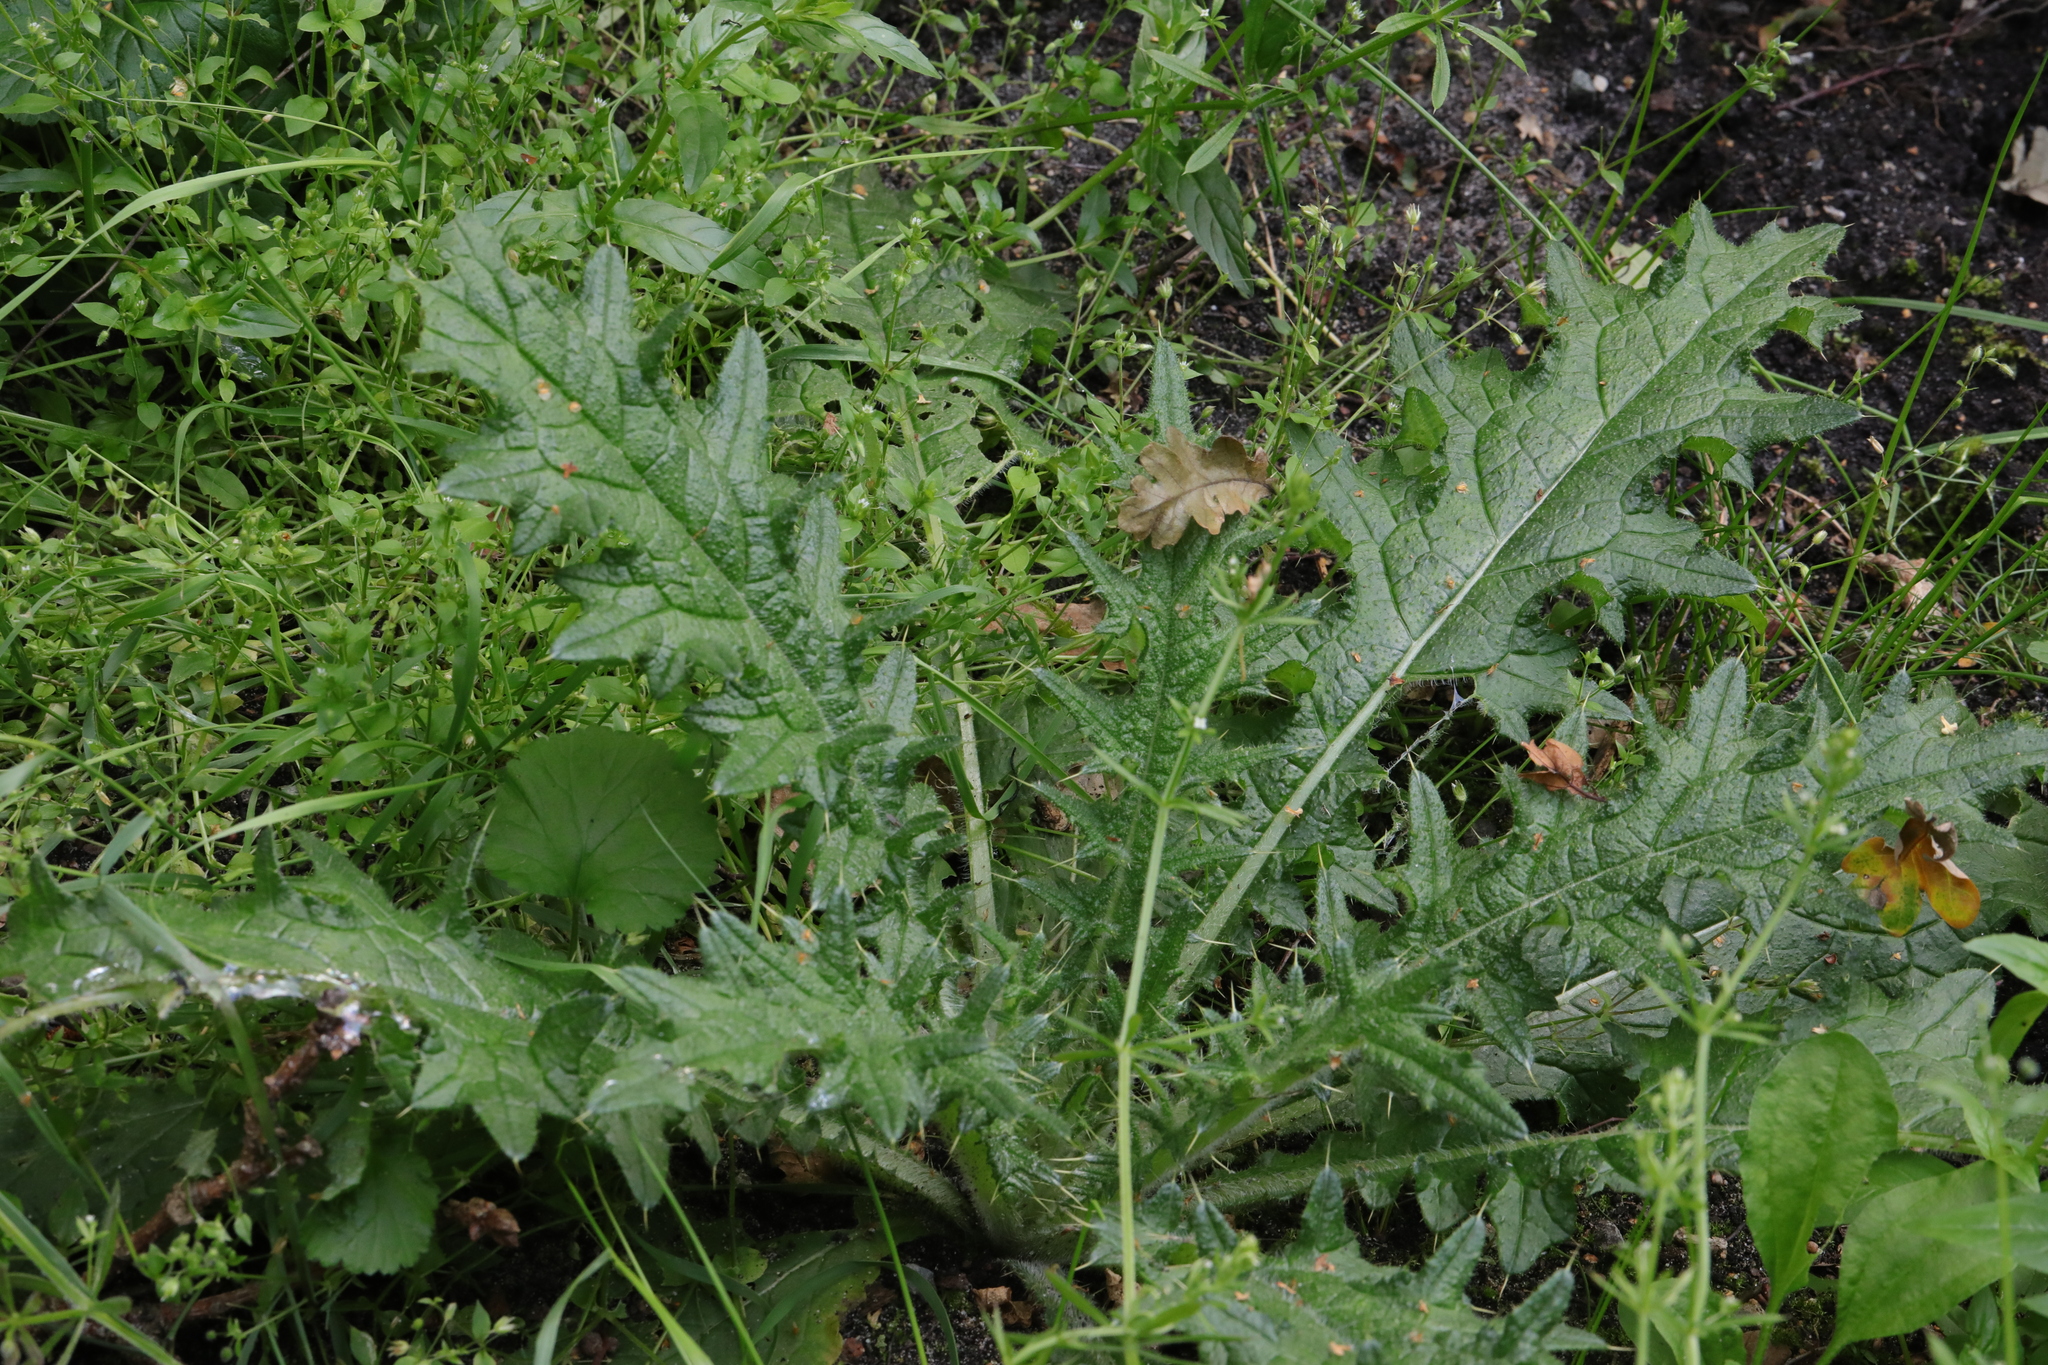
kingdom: Plantae
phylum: Tracheophyta
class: Magnoliopsida
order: Asterales
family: Asteraceae
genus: Cirsium
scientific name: Cirsium vulgare
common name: Bull thistle
